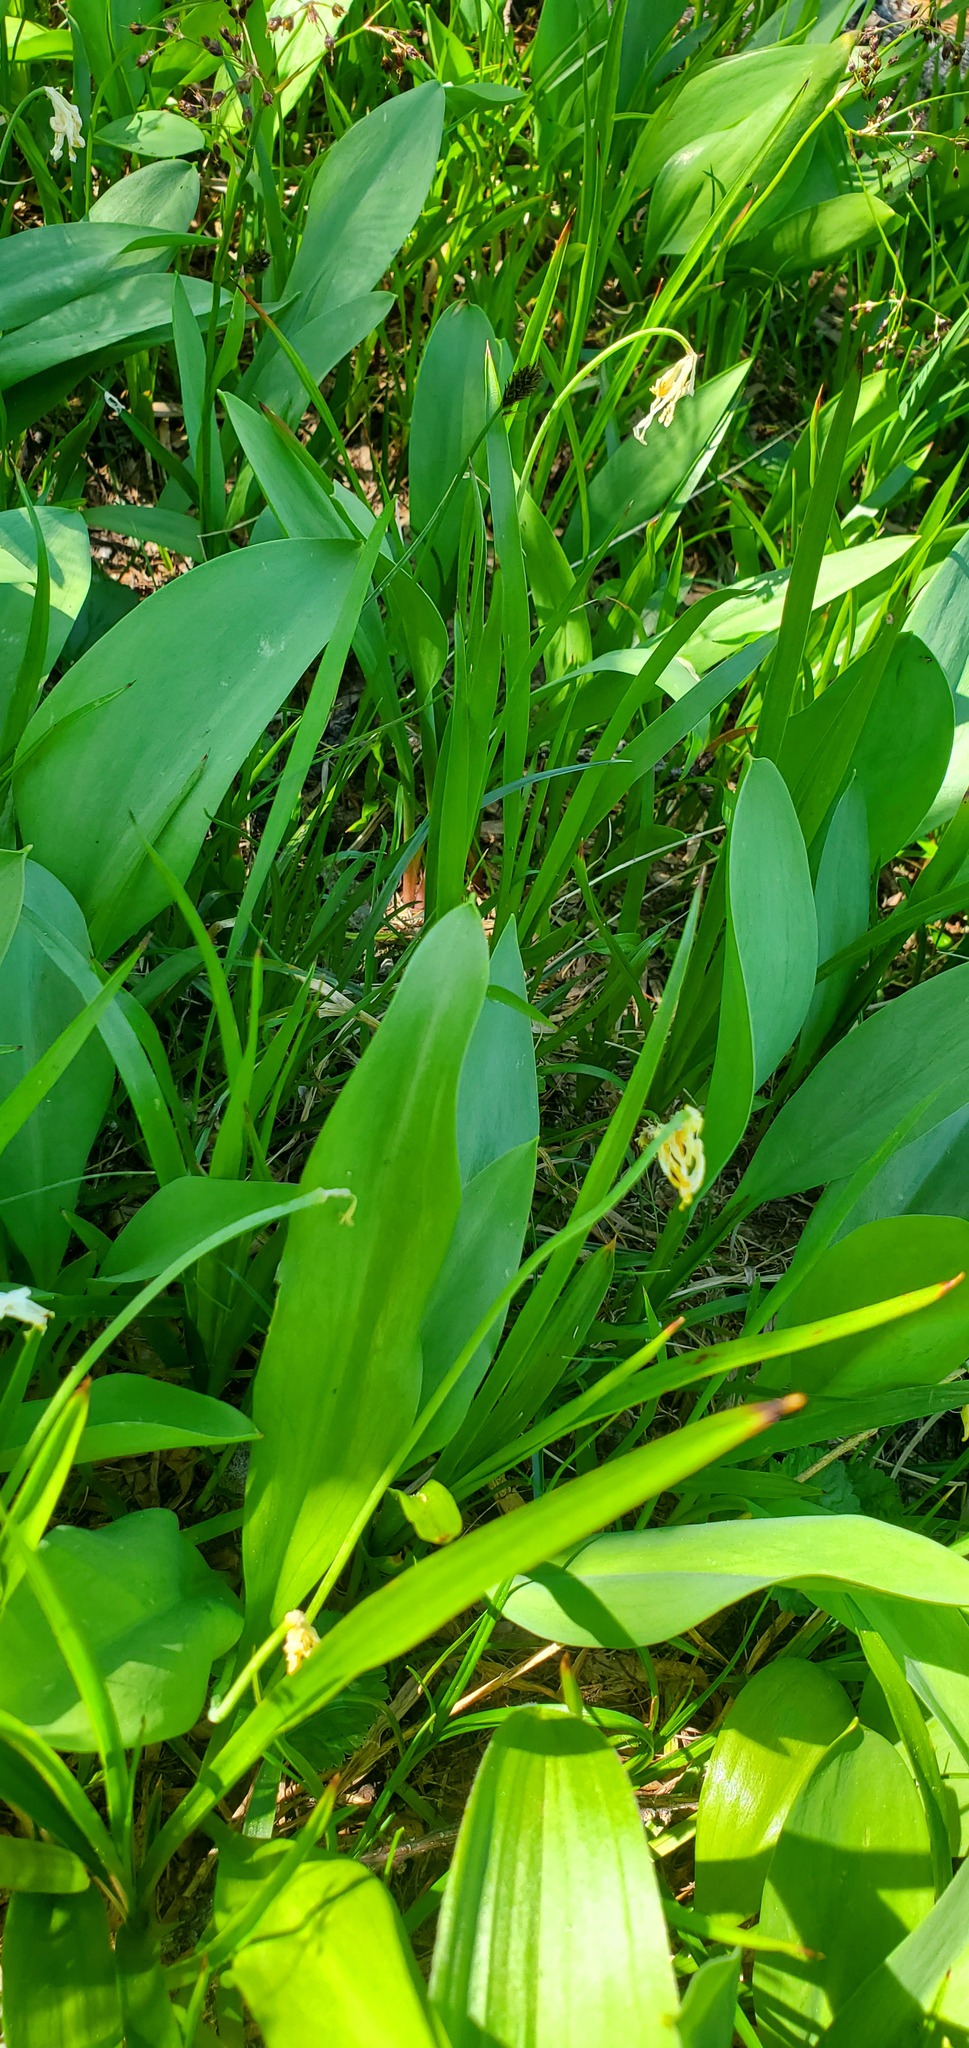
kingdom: Plantae
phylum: Tracheophyta
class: Liliopsida
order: Liliales
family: Liliaceae
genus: Erythronium
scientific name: Erythronium grandiflorum
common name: Avalanche-lily
